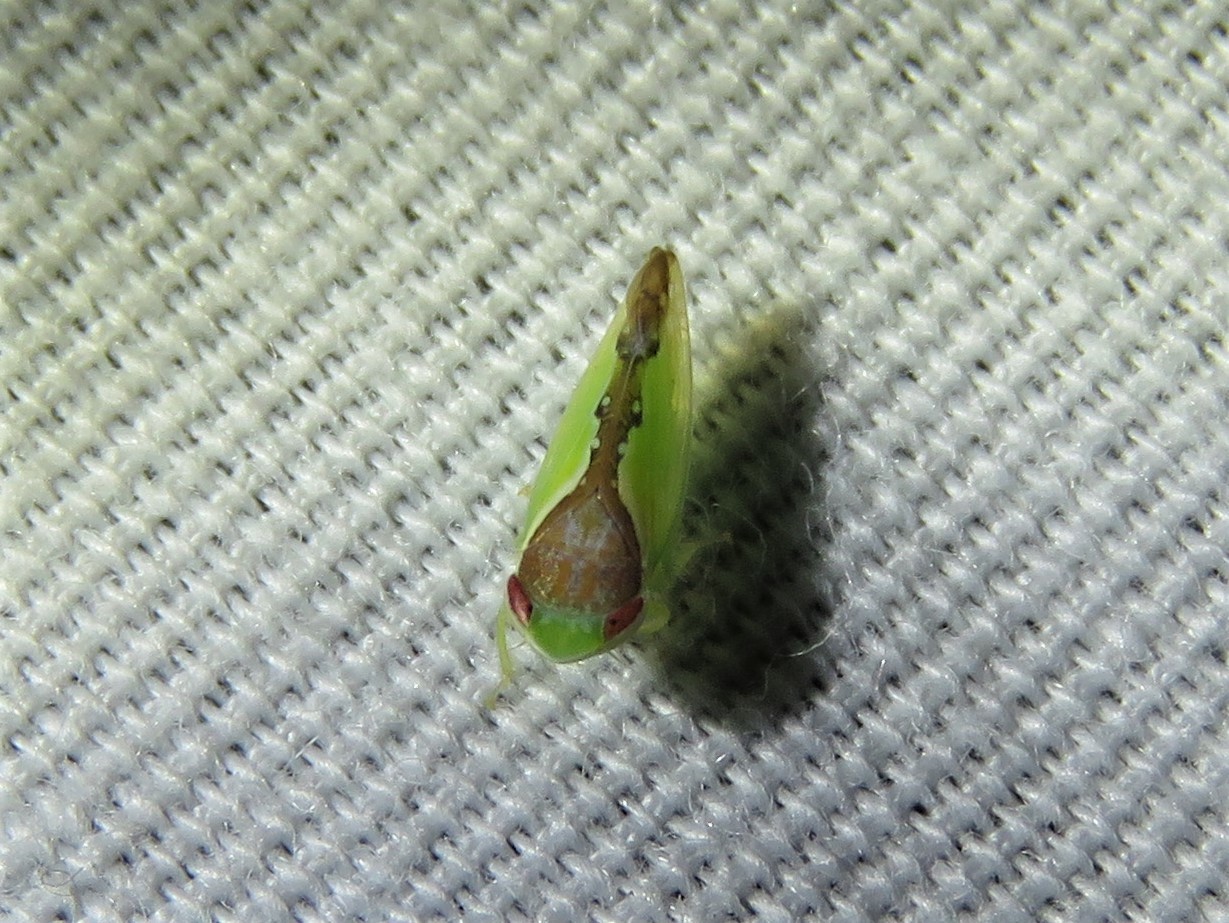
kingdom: Animalia
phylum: Arthropoda
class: Insecta
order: Hemiptera
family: Cicadellidae
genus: Omansobara ing
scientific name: Omansobara ing Omansobara palliolata
